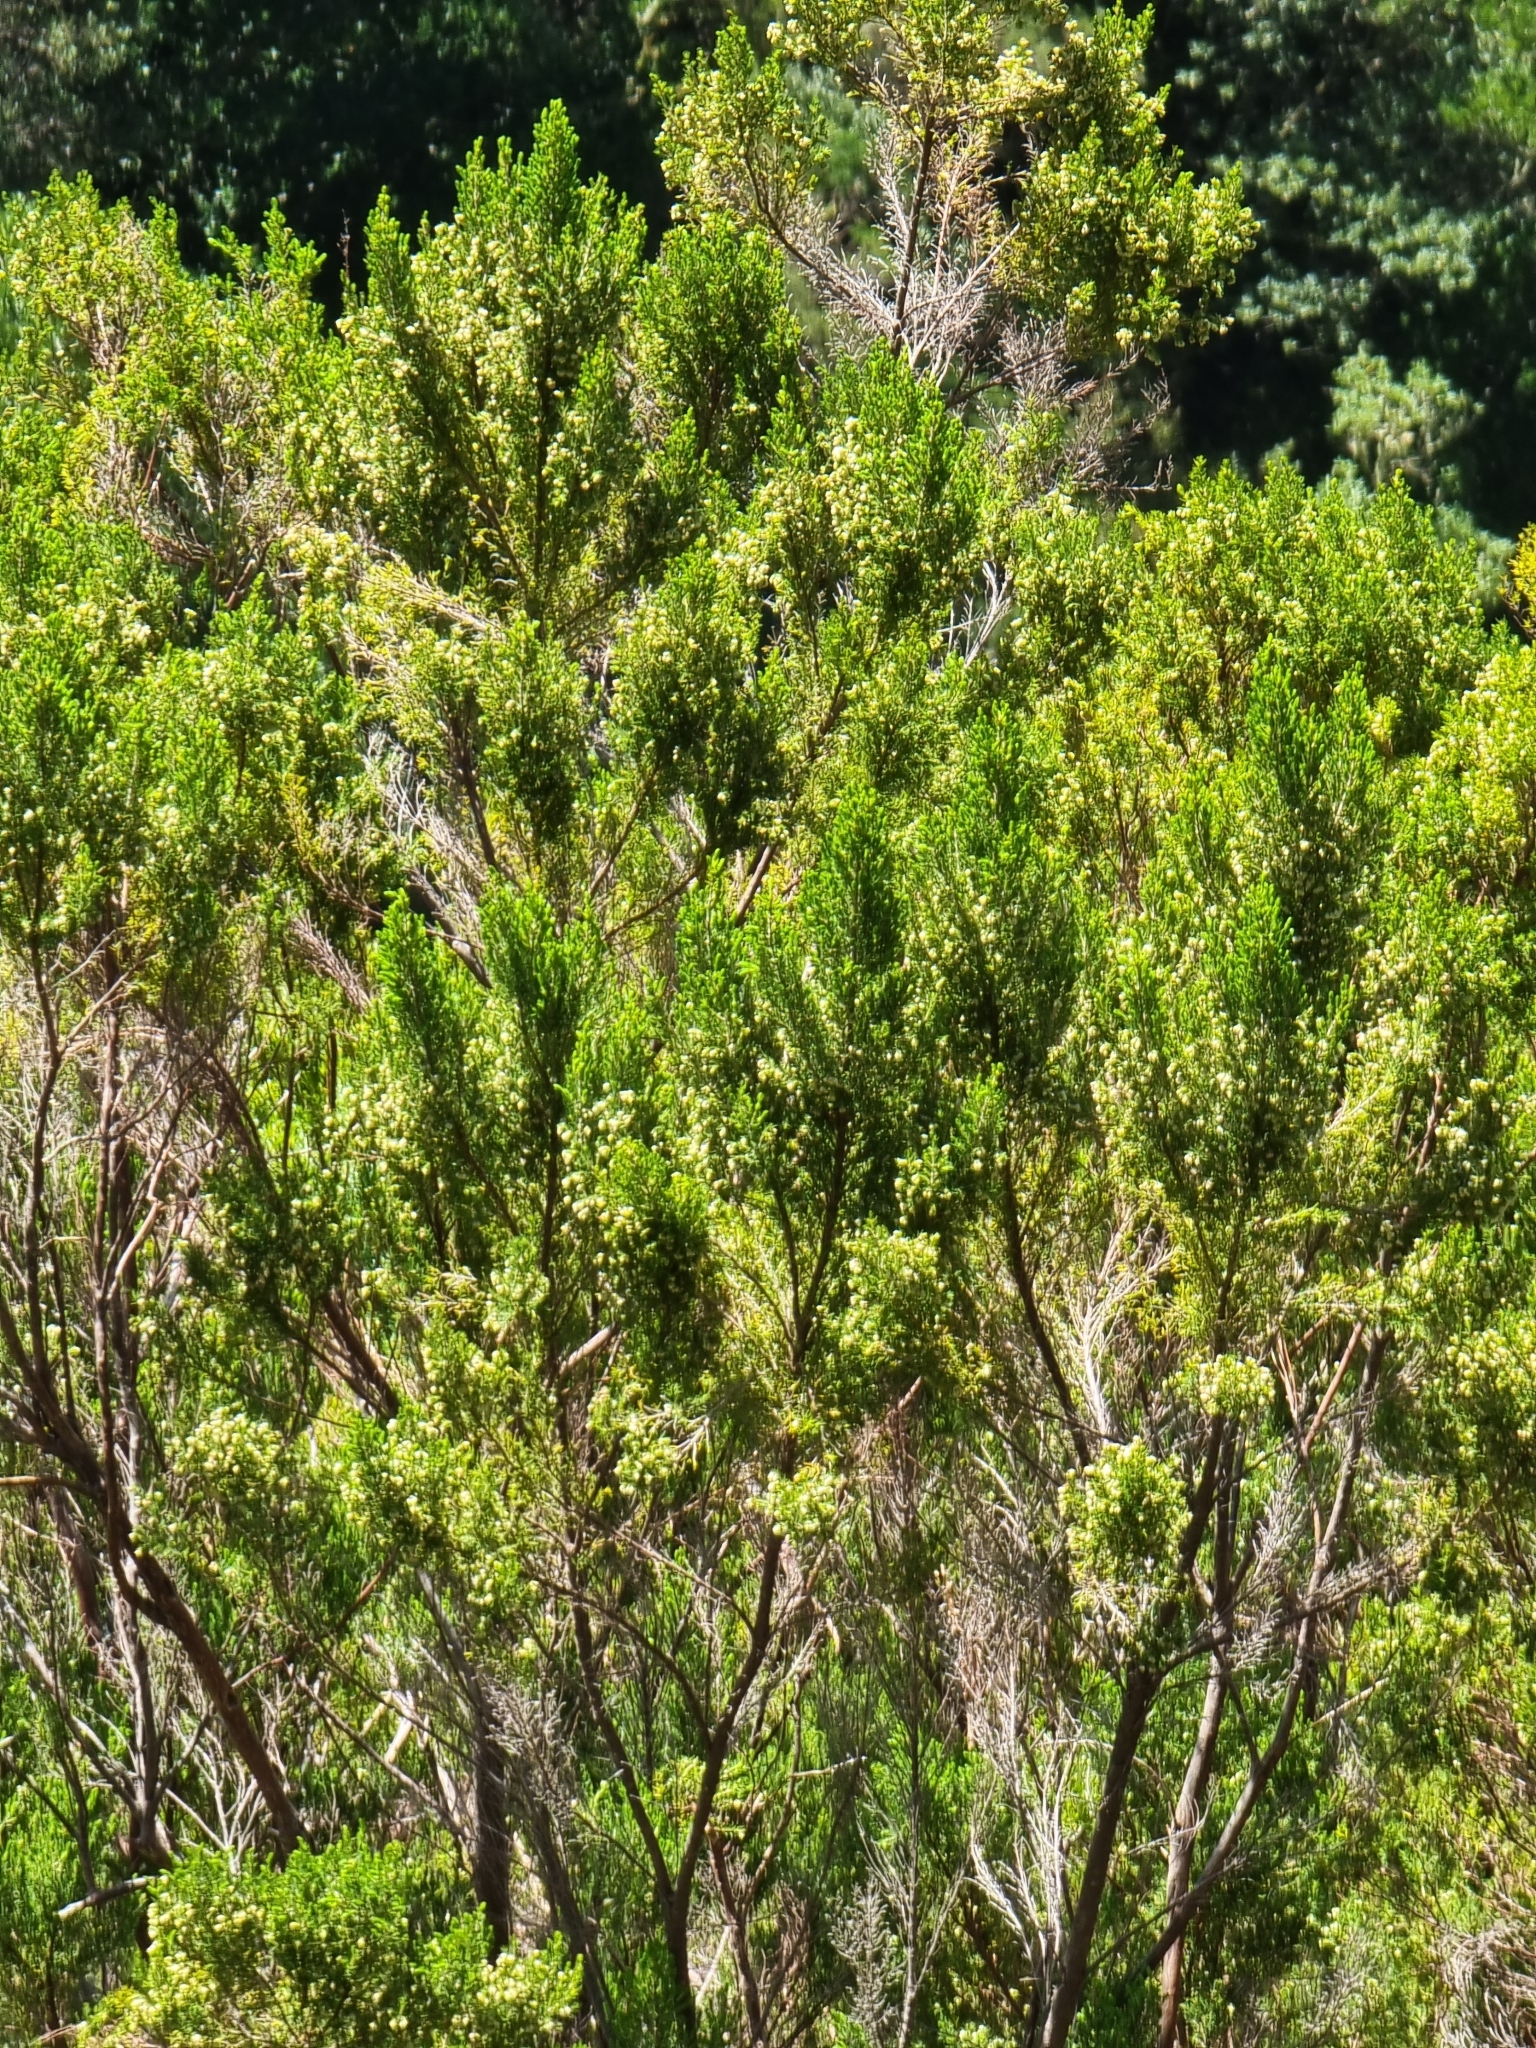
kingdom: Plantae
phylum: Tracheophyta
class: Magnoliopsida
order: Ericales
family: Ericaceae
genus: Erica
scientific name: Erica canariensis
